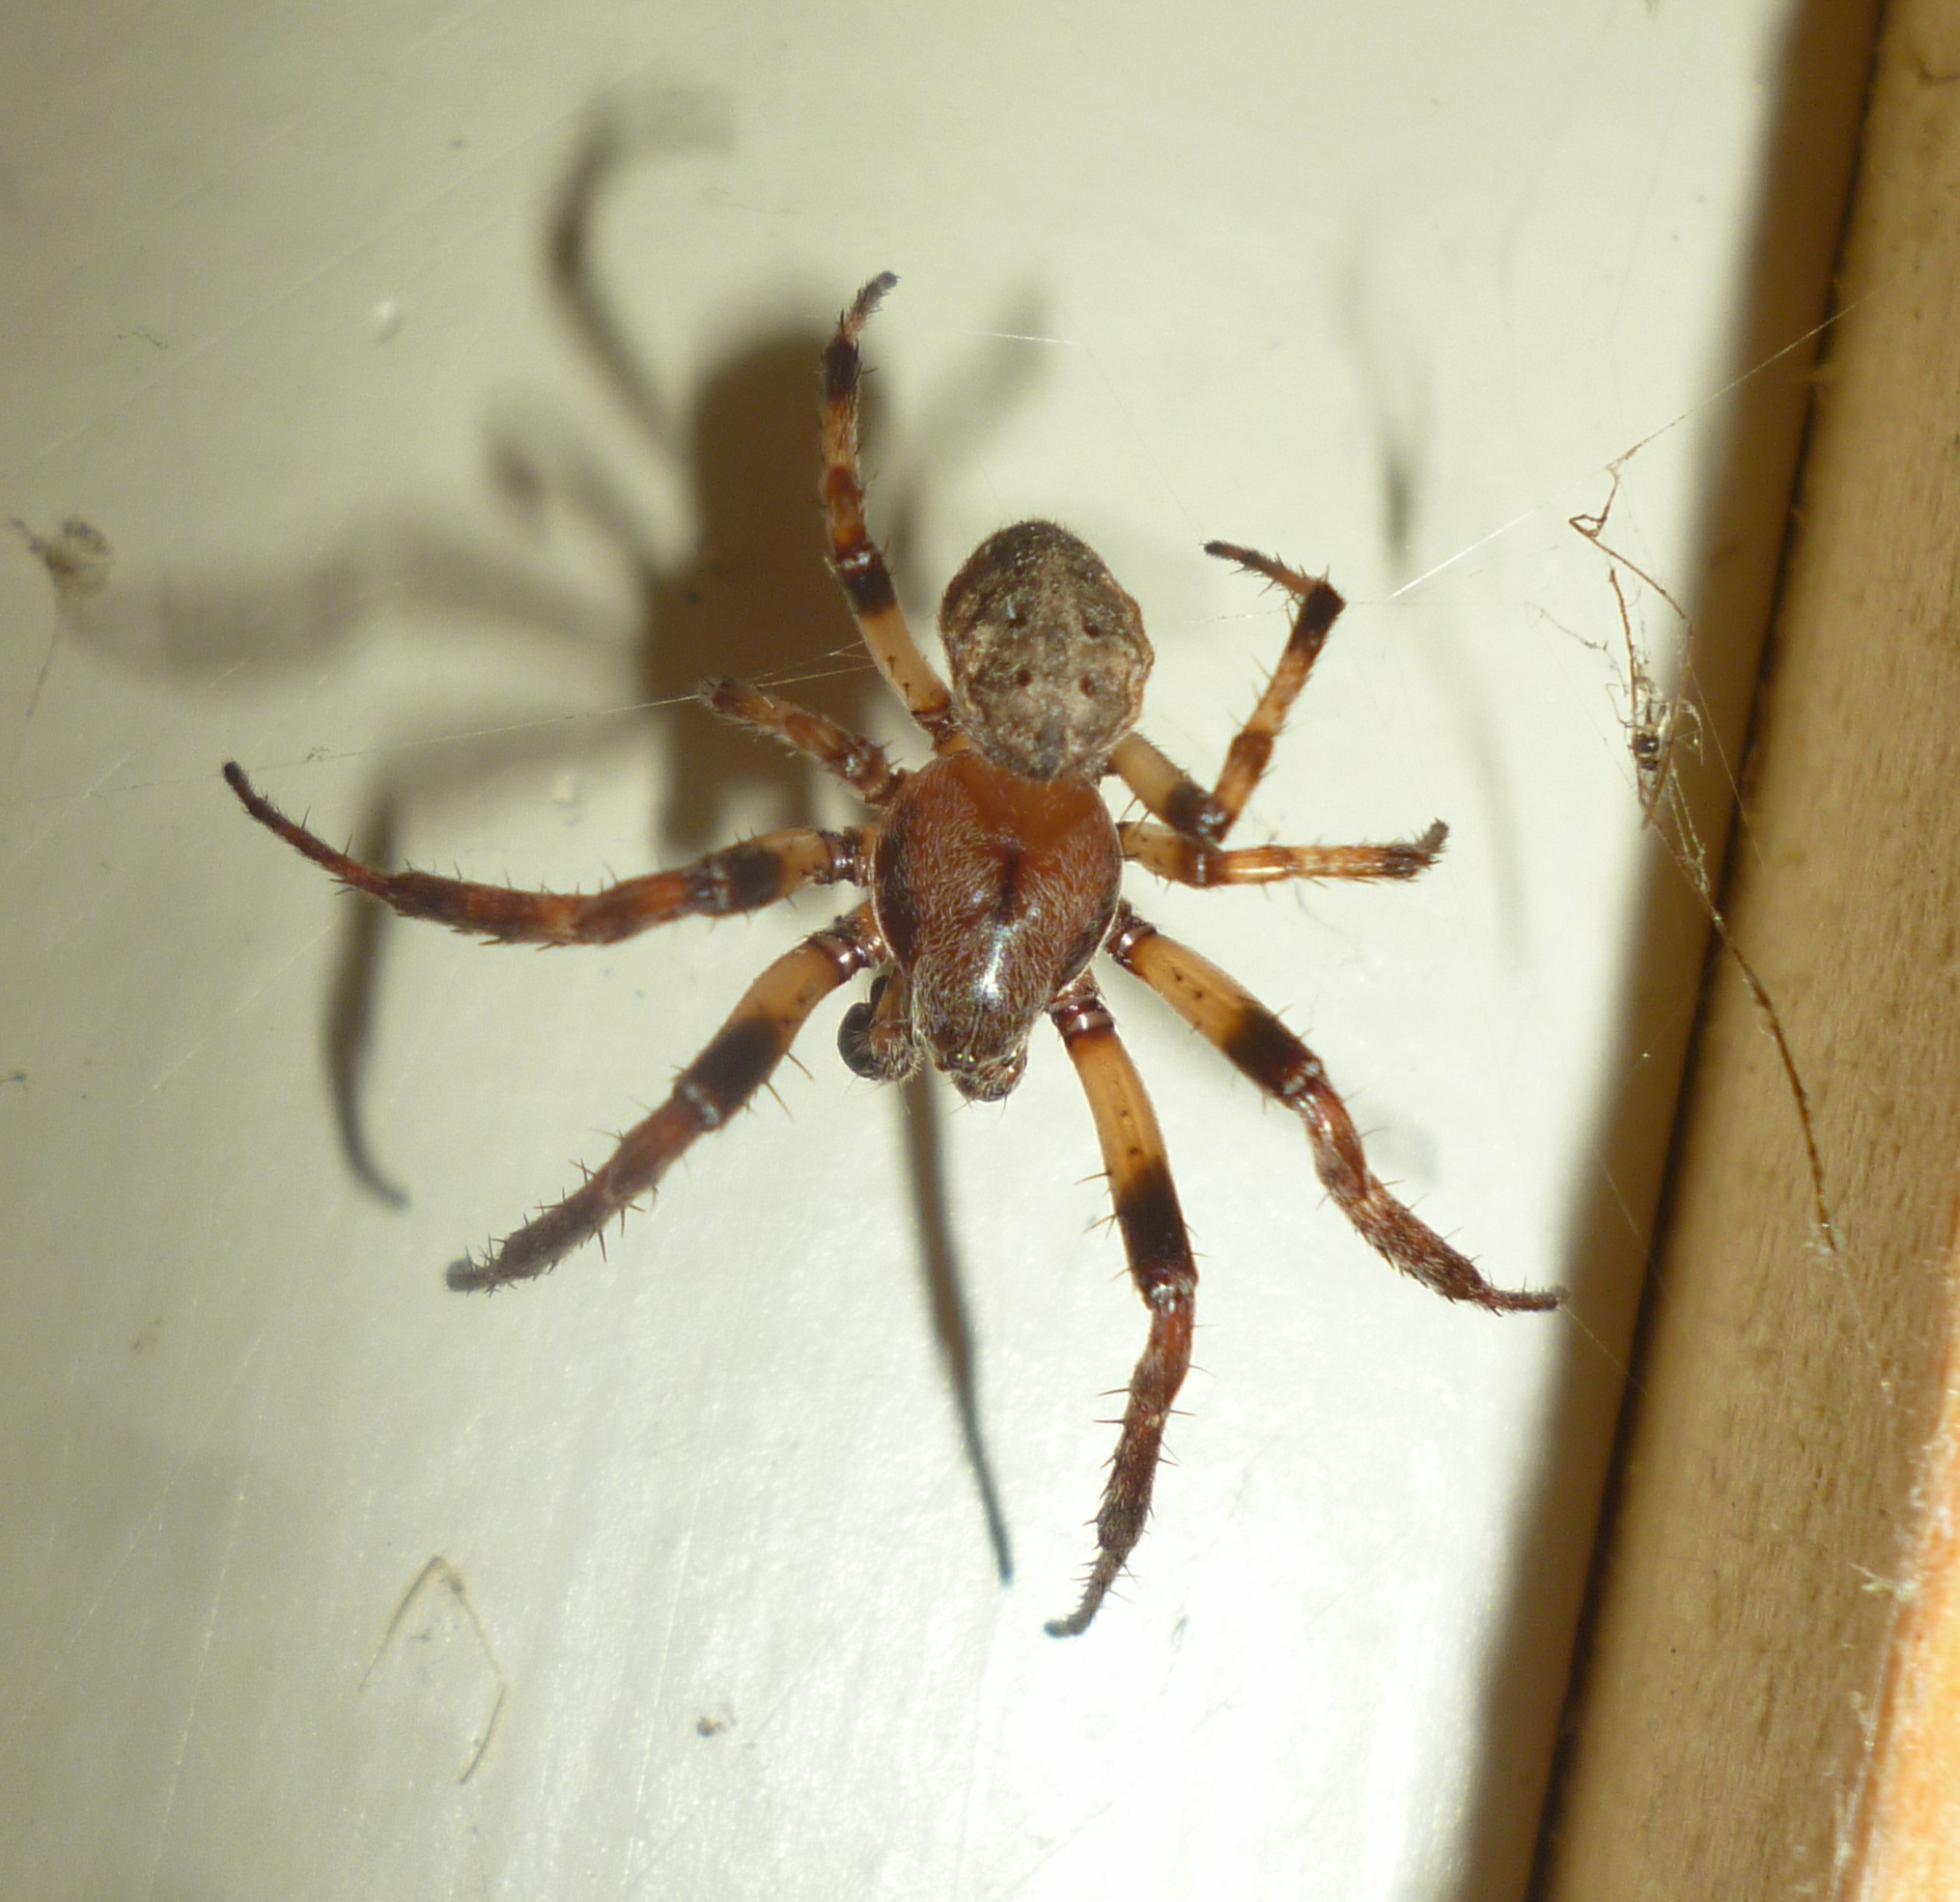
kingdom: Animalia
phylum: Arthropoda
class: Arachnida
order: Araneae
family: Araneidae
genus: Larinioides
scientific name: Larinioides cornutus
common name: Furrow orbweaver
